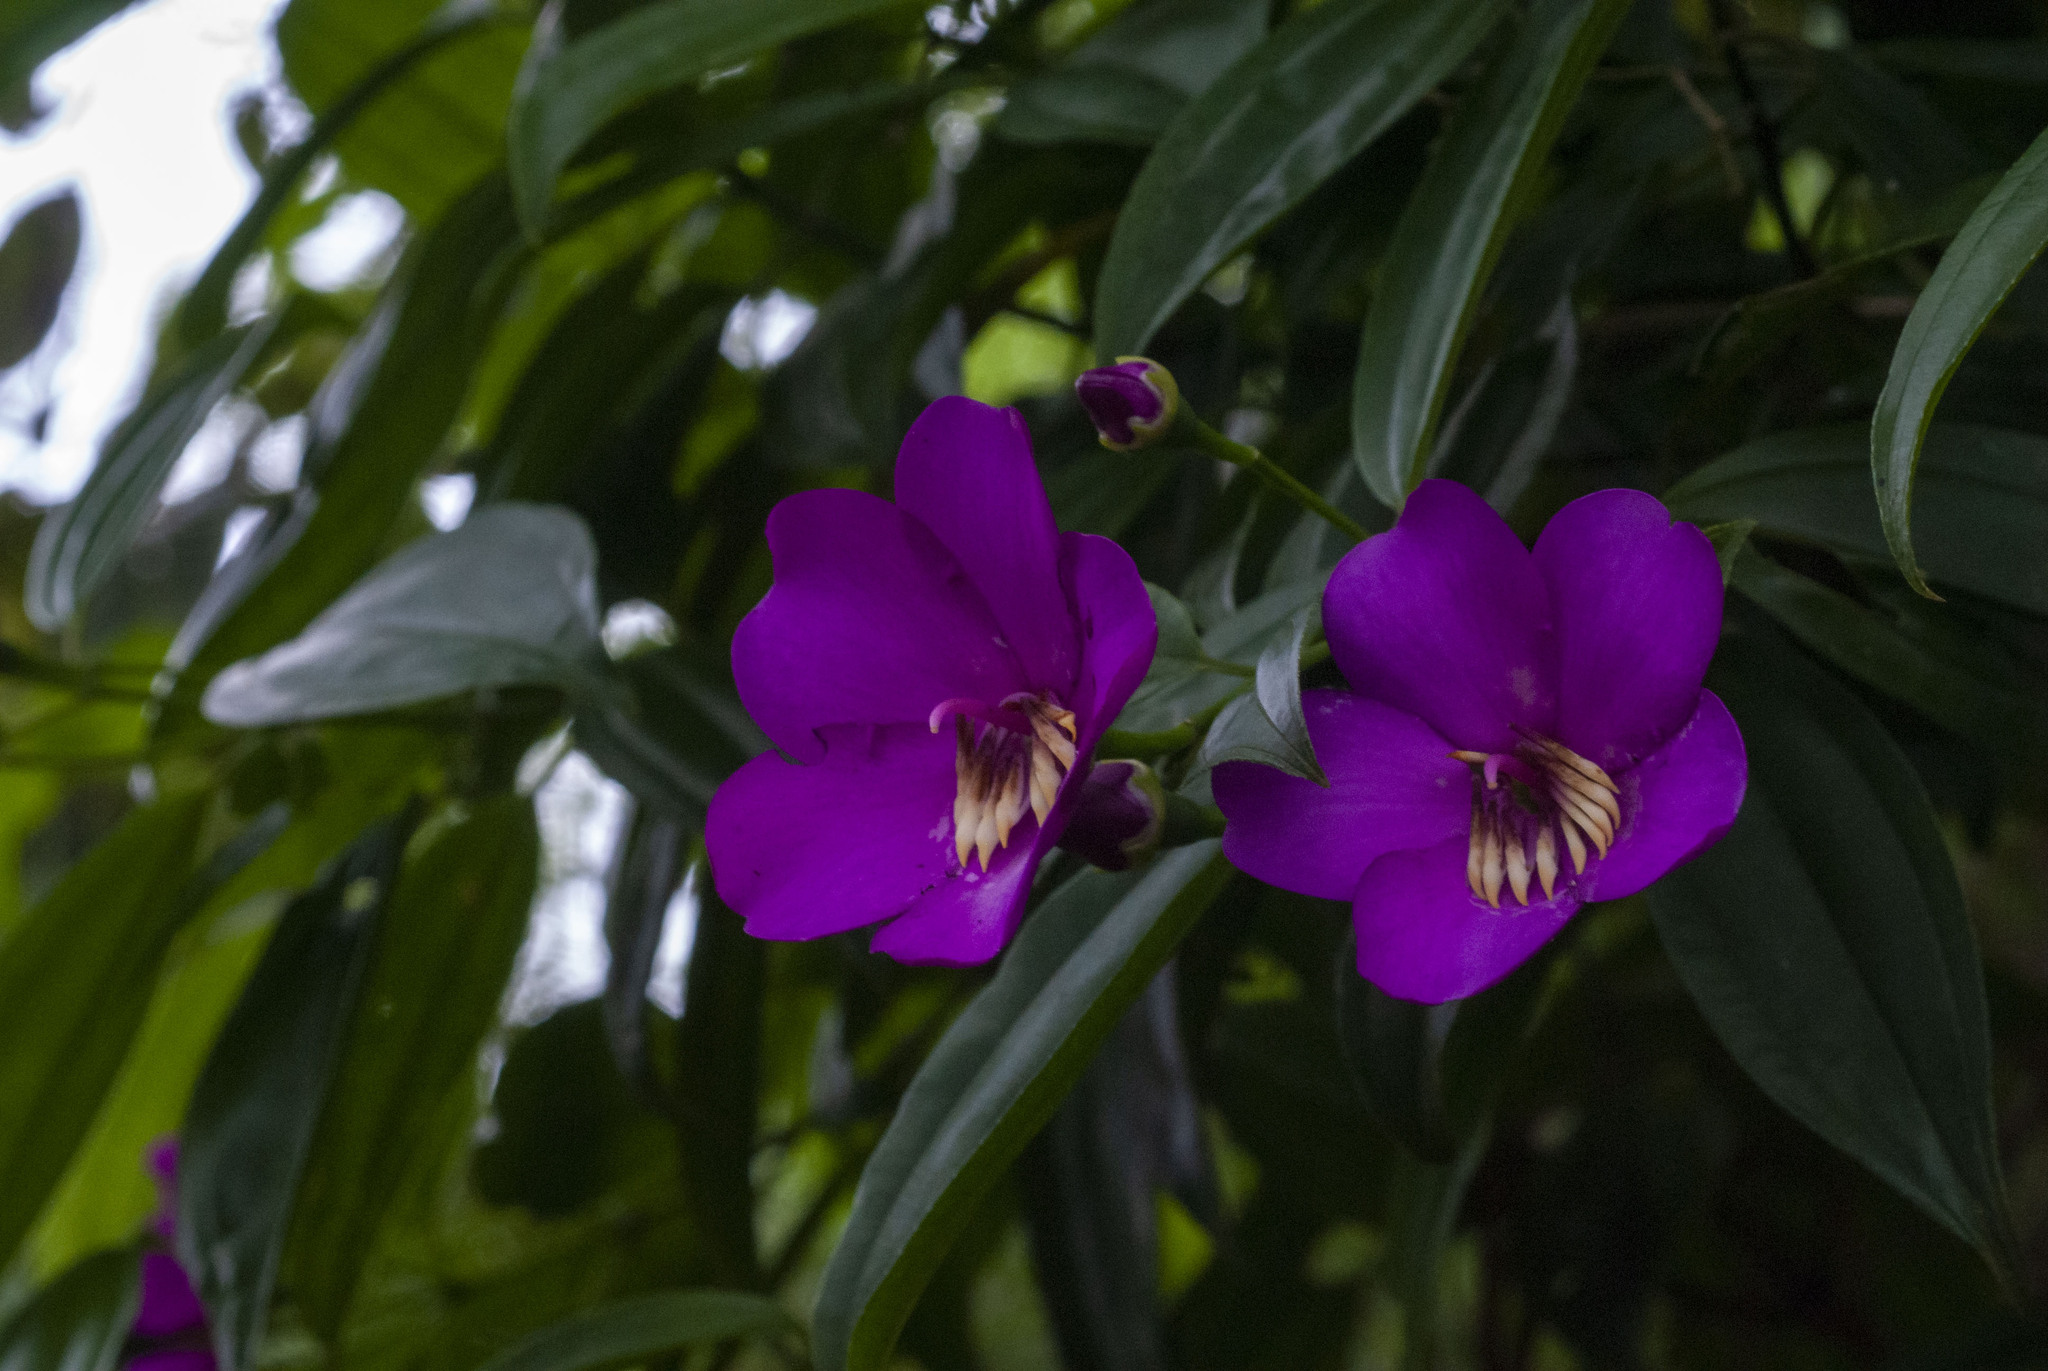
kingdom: Plantae
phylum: Tracheophyta
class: Magnoliopsida
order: Myrtales
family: Melastomataceae
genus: Meriania
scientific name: Meriania speciosa
